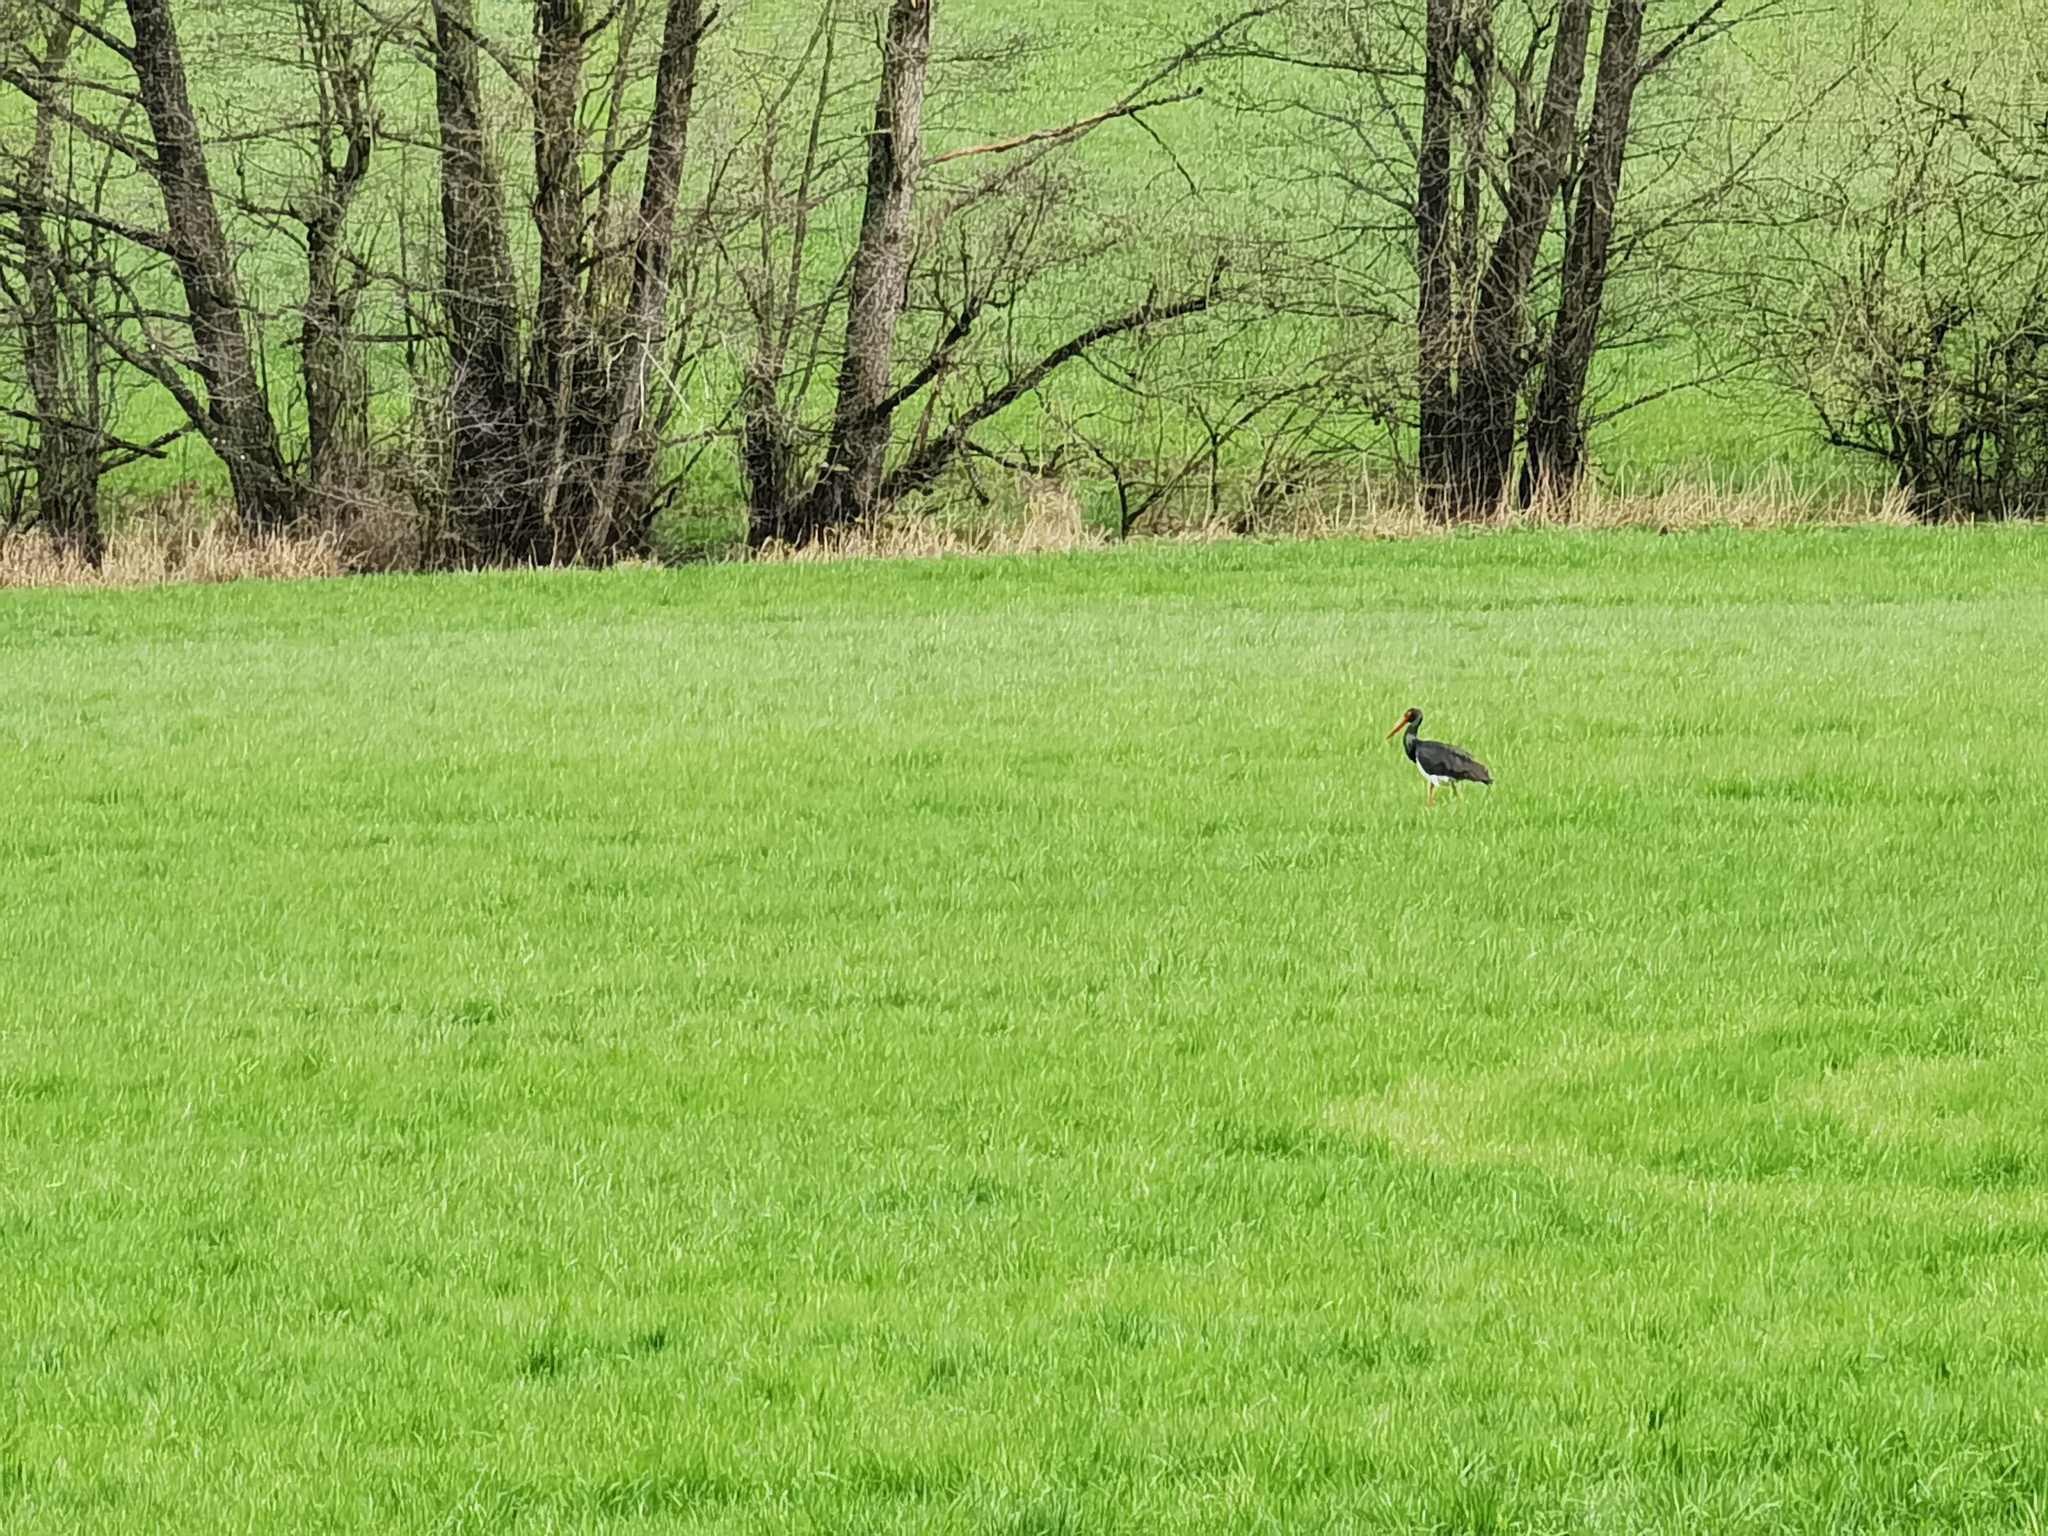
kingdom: Animalia
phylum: Chordata
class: Aves
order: Ciconiiformes
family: Ciconiidae
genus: Ciconia
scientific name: Ciconia nigra
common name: Black stork
